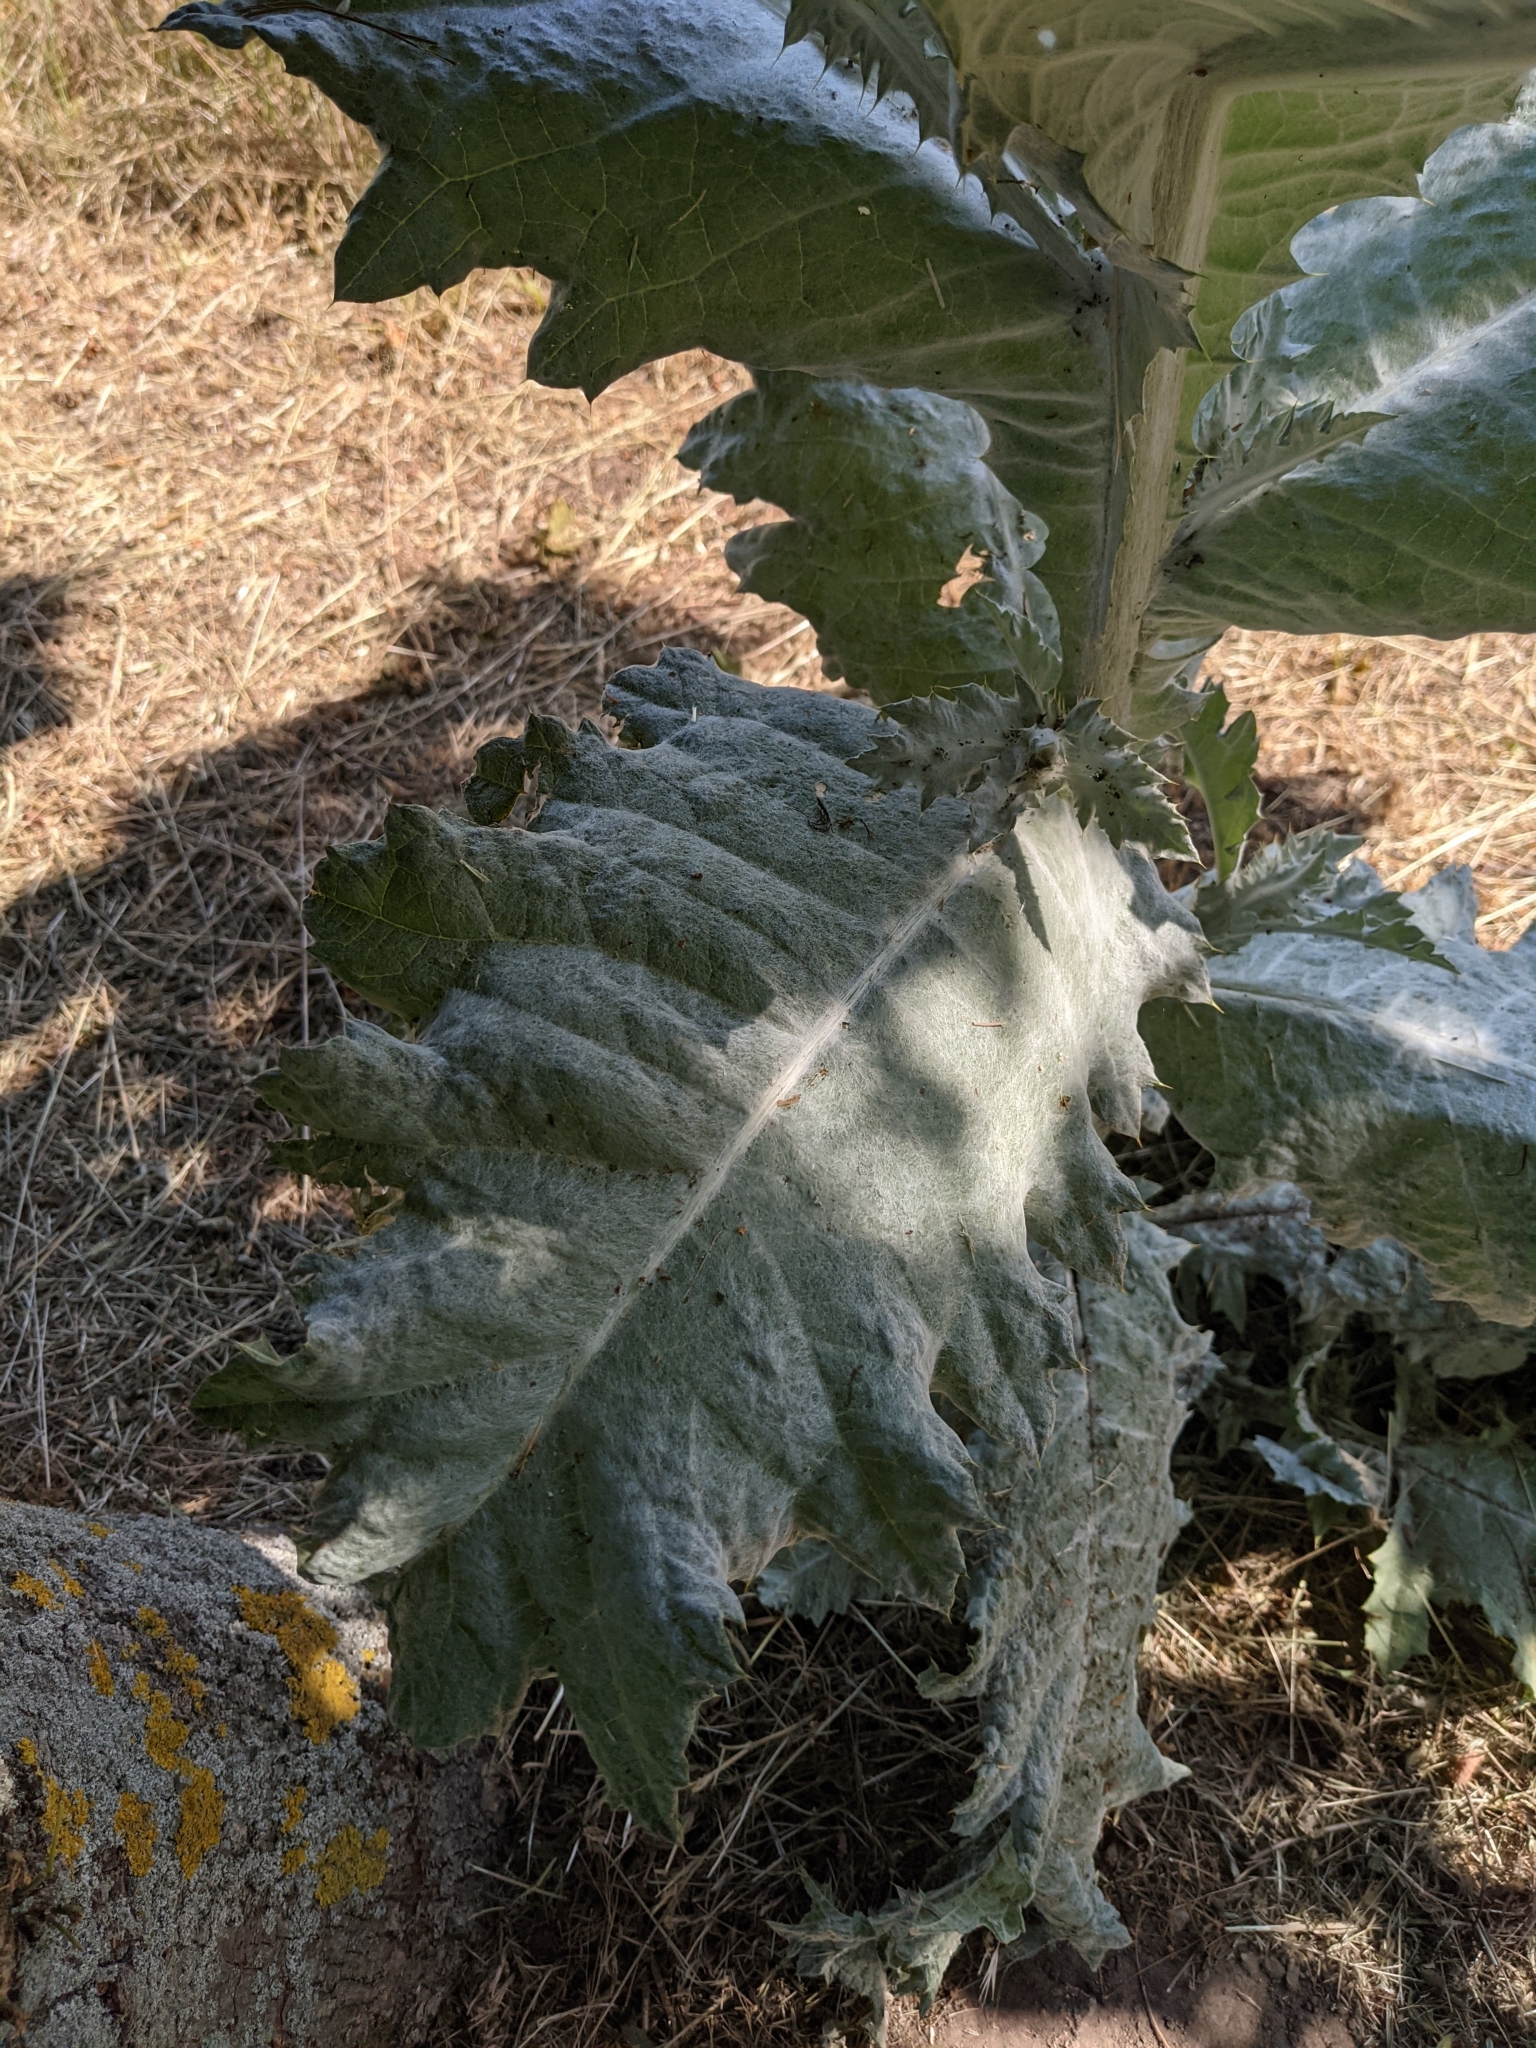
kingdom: Plantae
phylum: Tracheophyta
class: Magnoliopsida
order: Asterales
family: Asteraceae
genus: Onopordum
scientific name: Onopordum acanthium
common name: Scotch thistle
